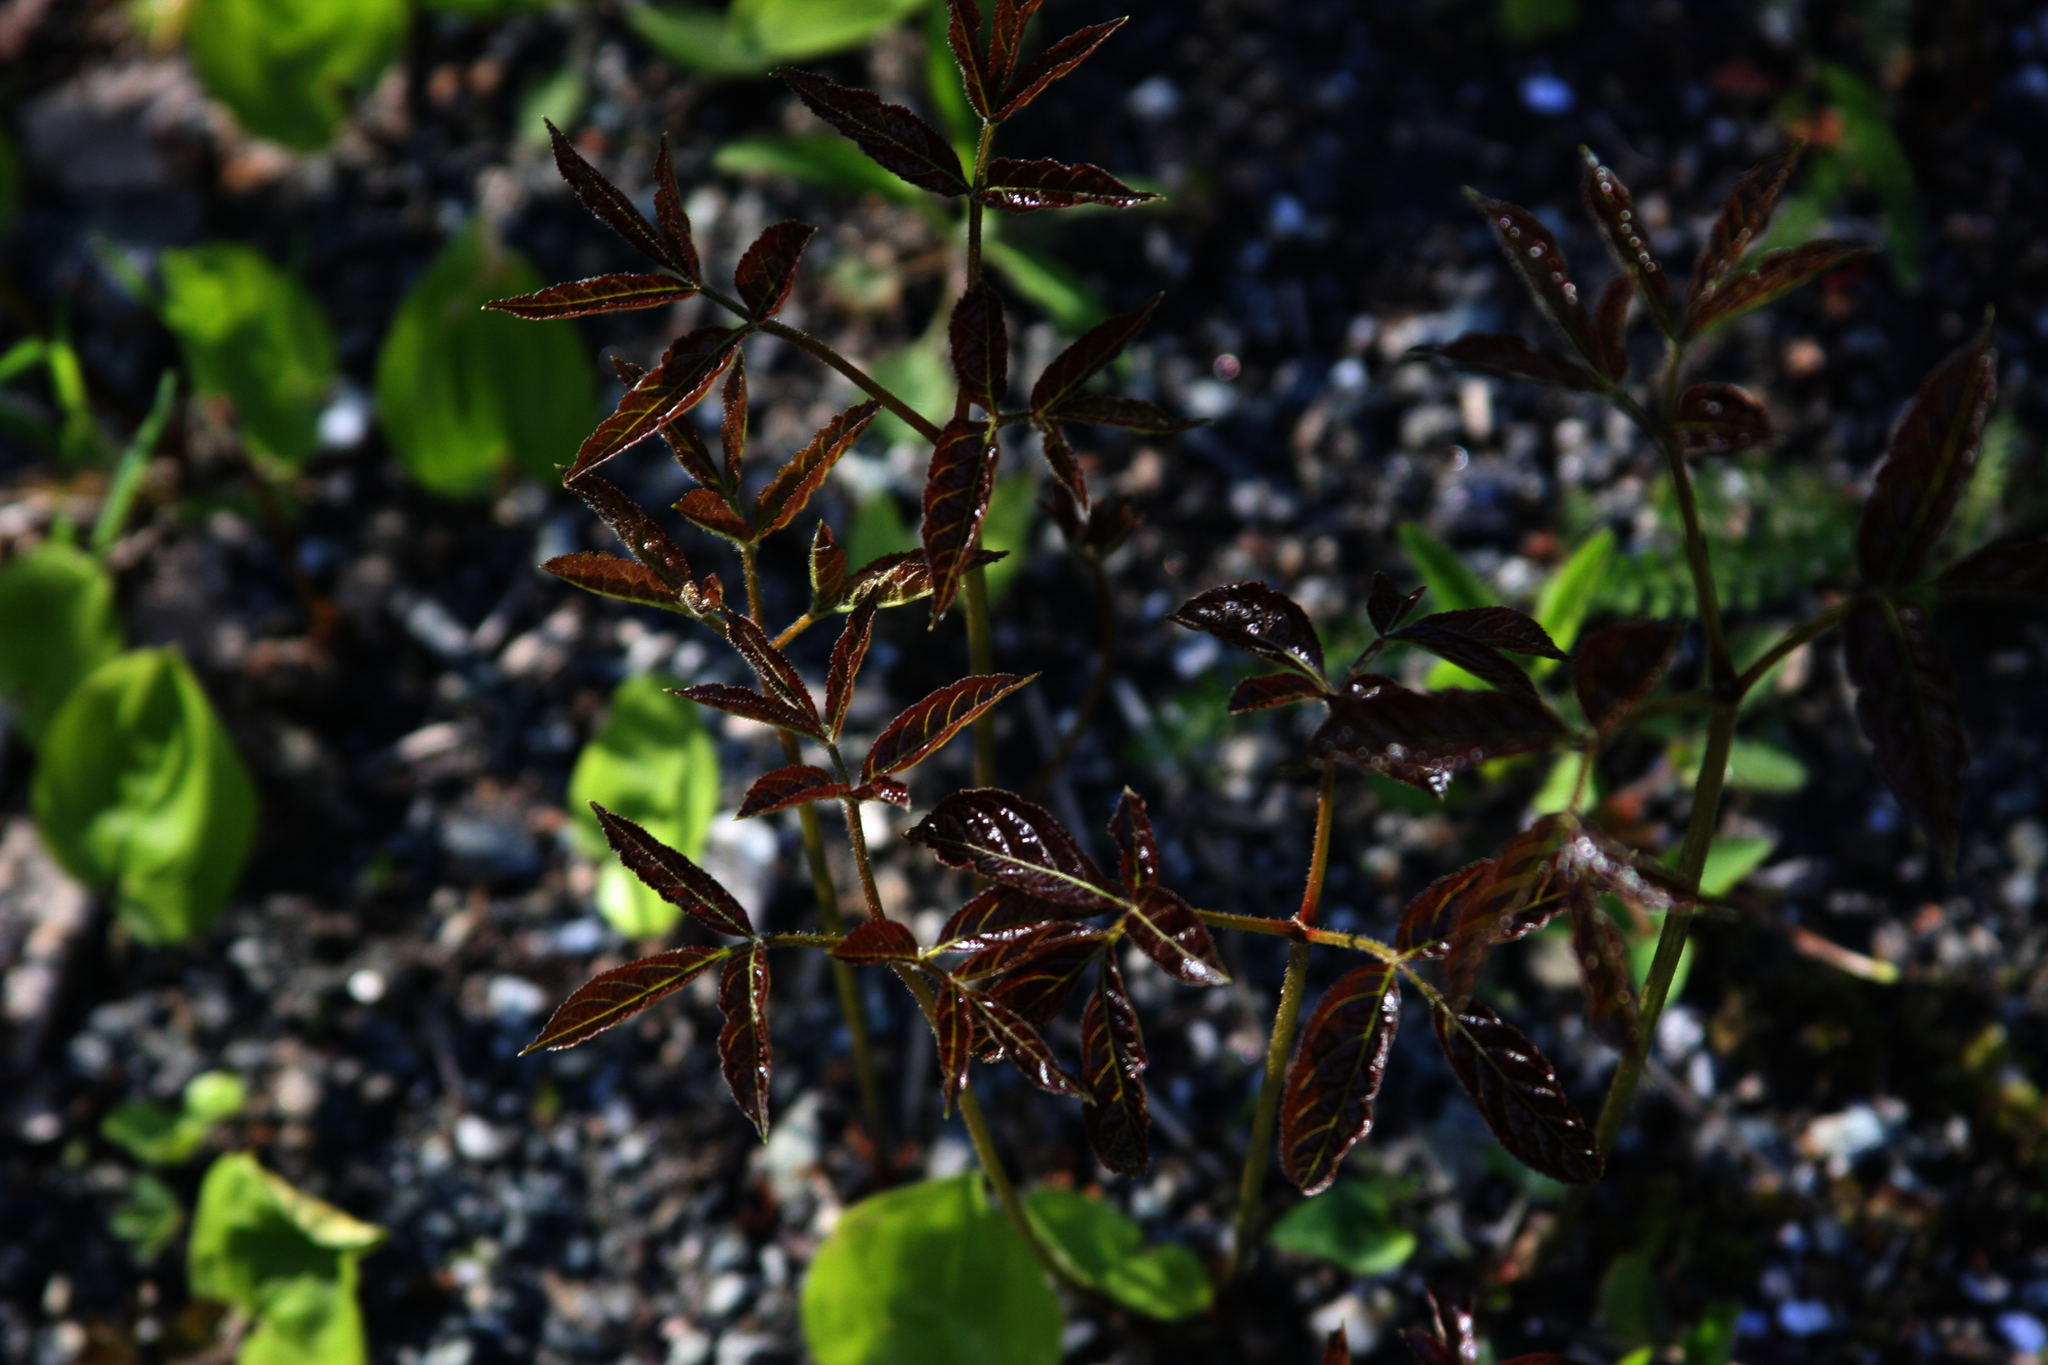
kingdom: Plantae
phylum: Tracheophyta
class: Magnoliopsida
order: Apiales
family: Araliaceae
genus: Aralia
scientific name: Aralia nudicaulis
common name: Wild sarsaparilla
